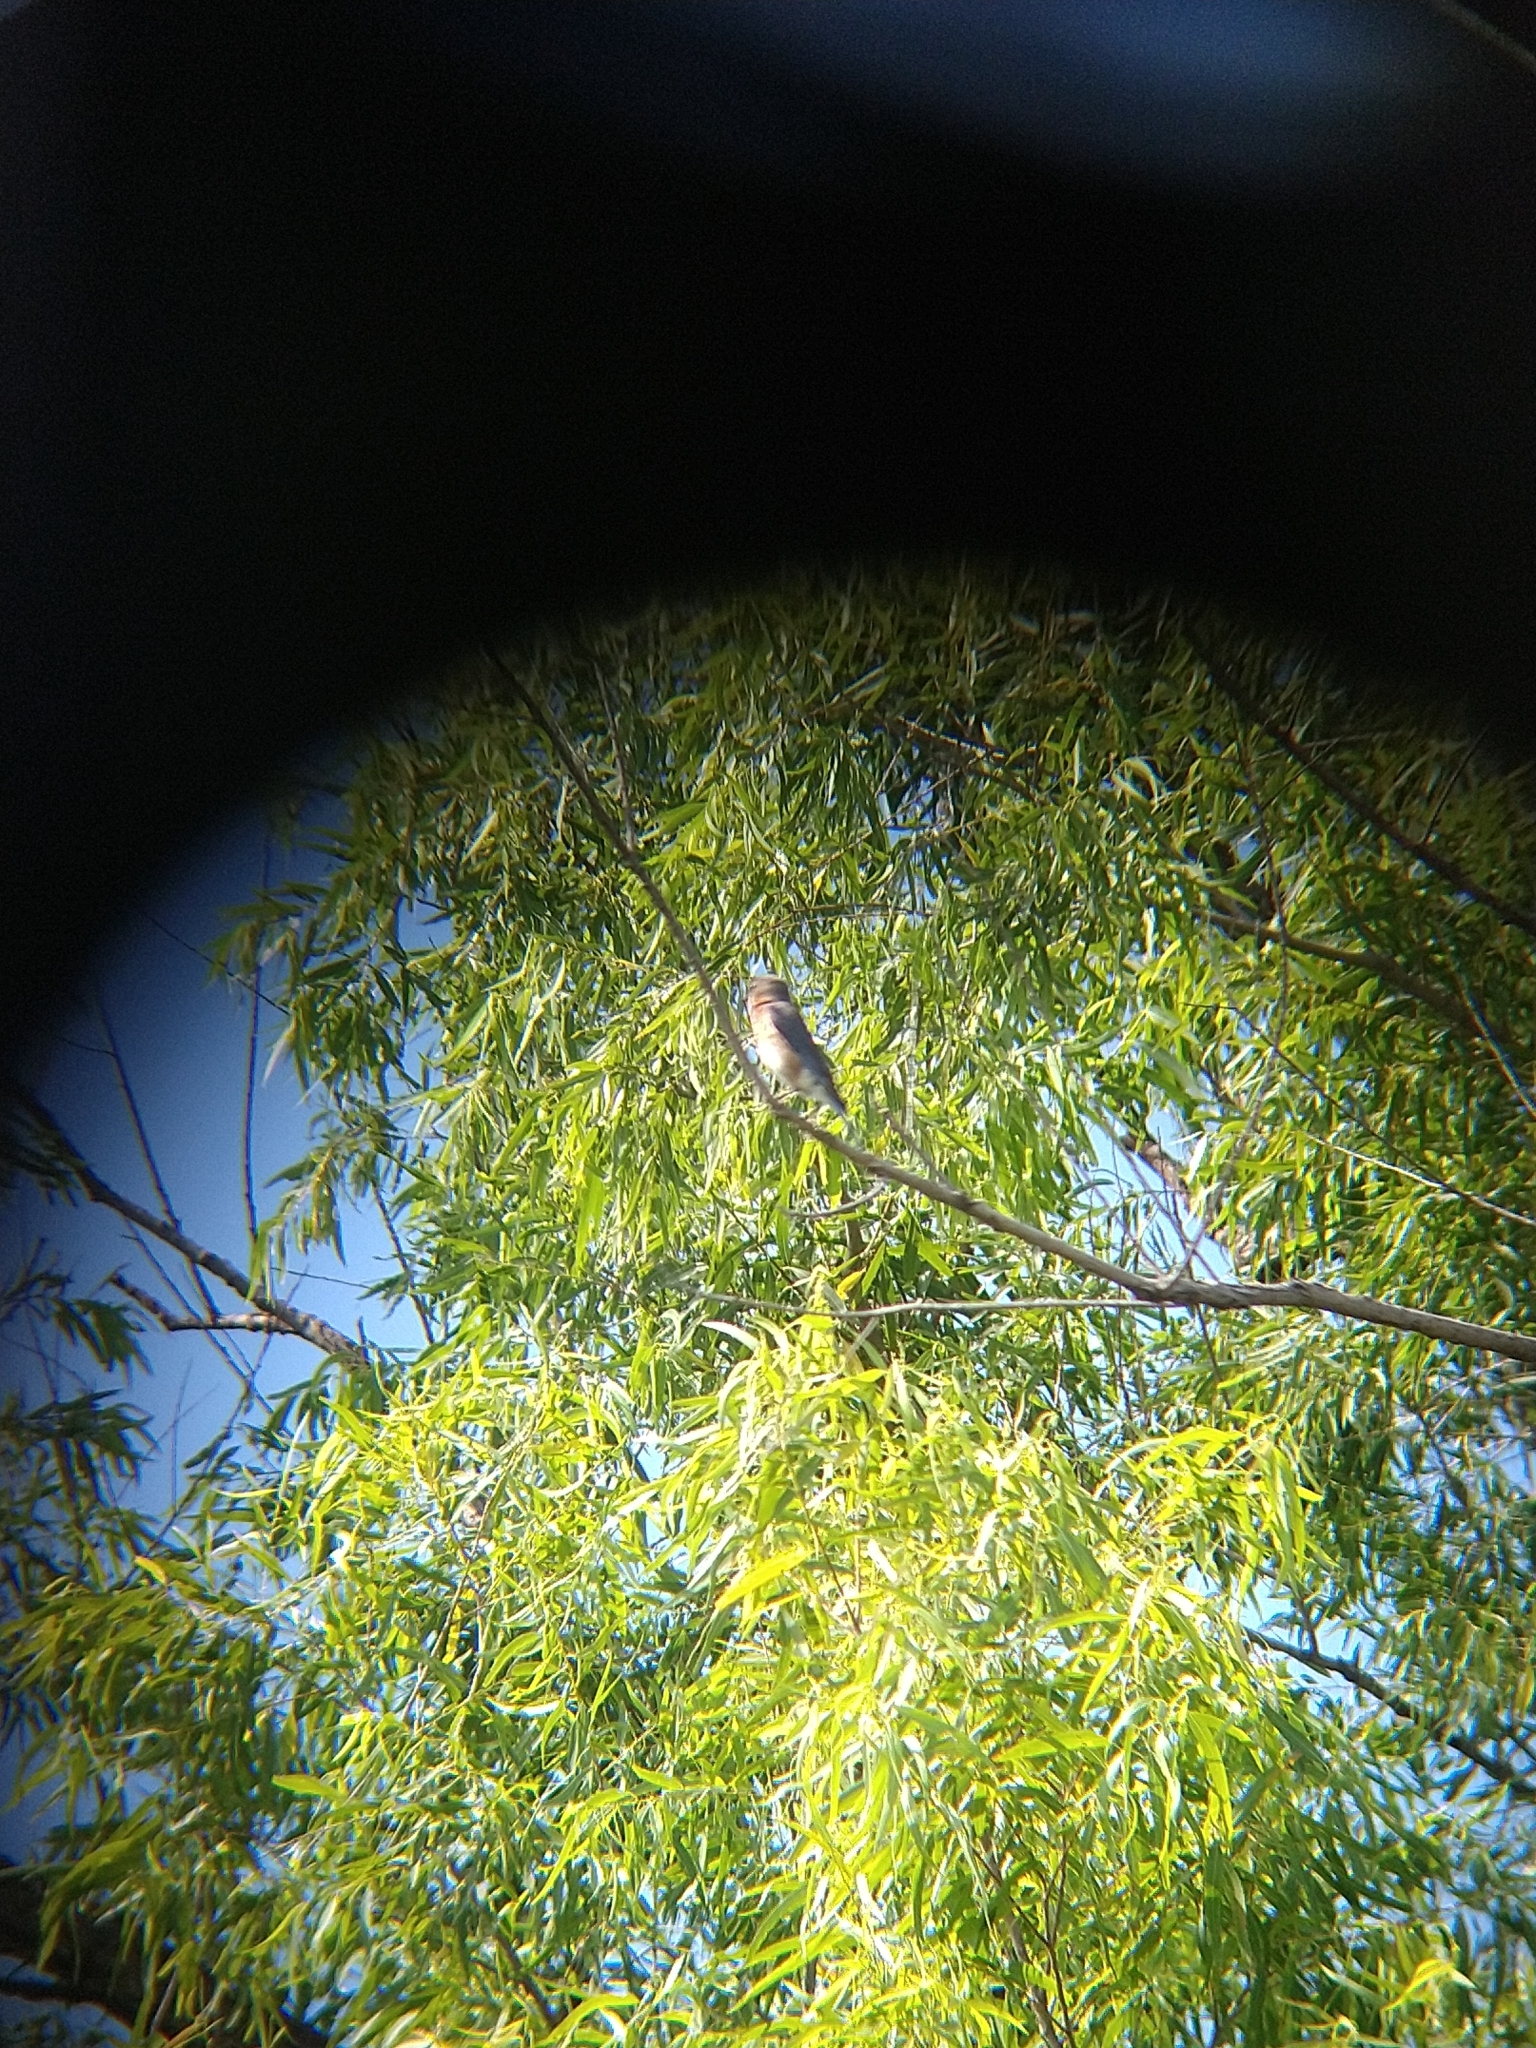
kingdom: Animalia
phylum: Chordata
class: Aves
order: Passeriformes
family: Turdidae
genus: Sialia
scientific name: Sialia sialis
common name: Eastern bluebird
